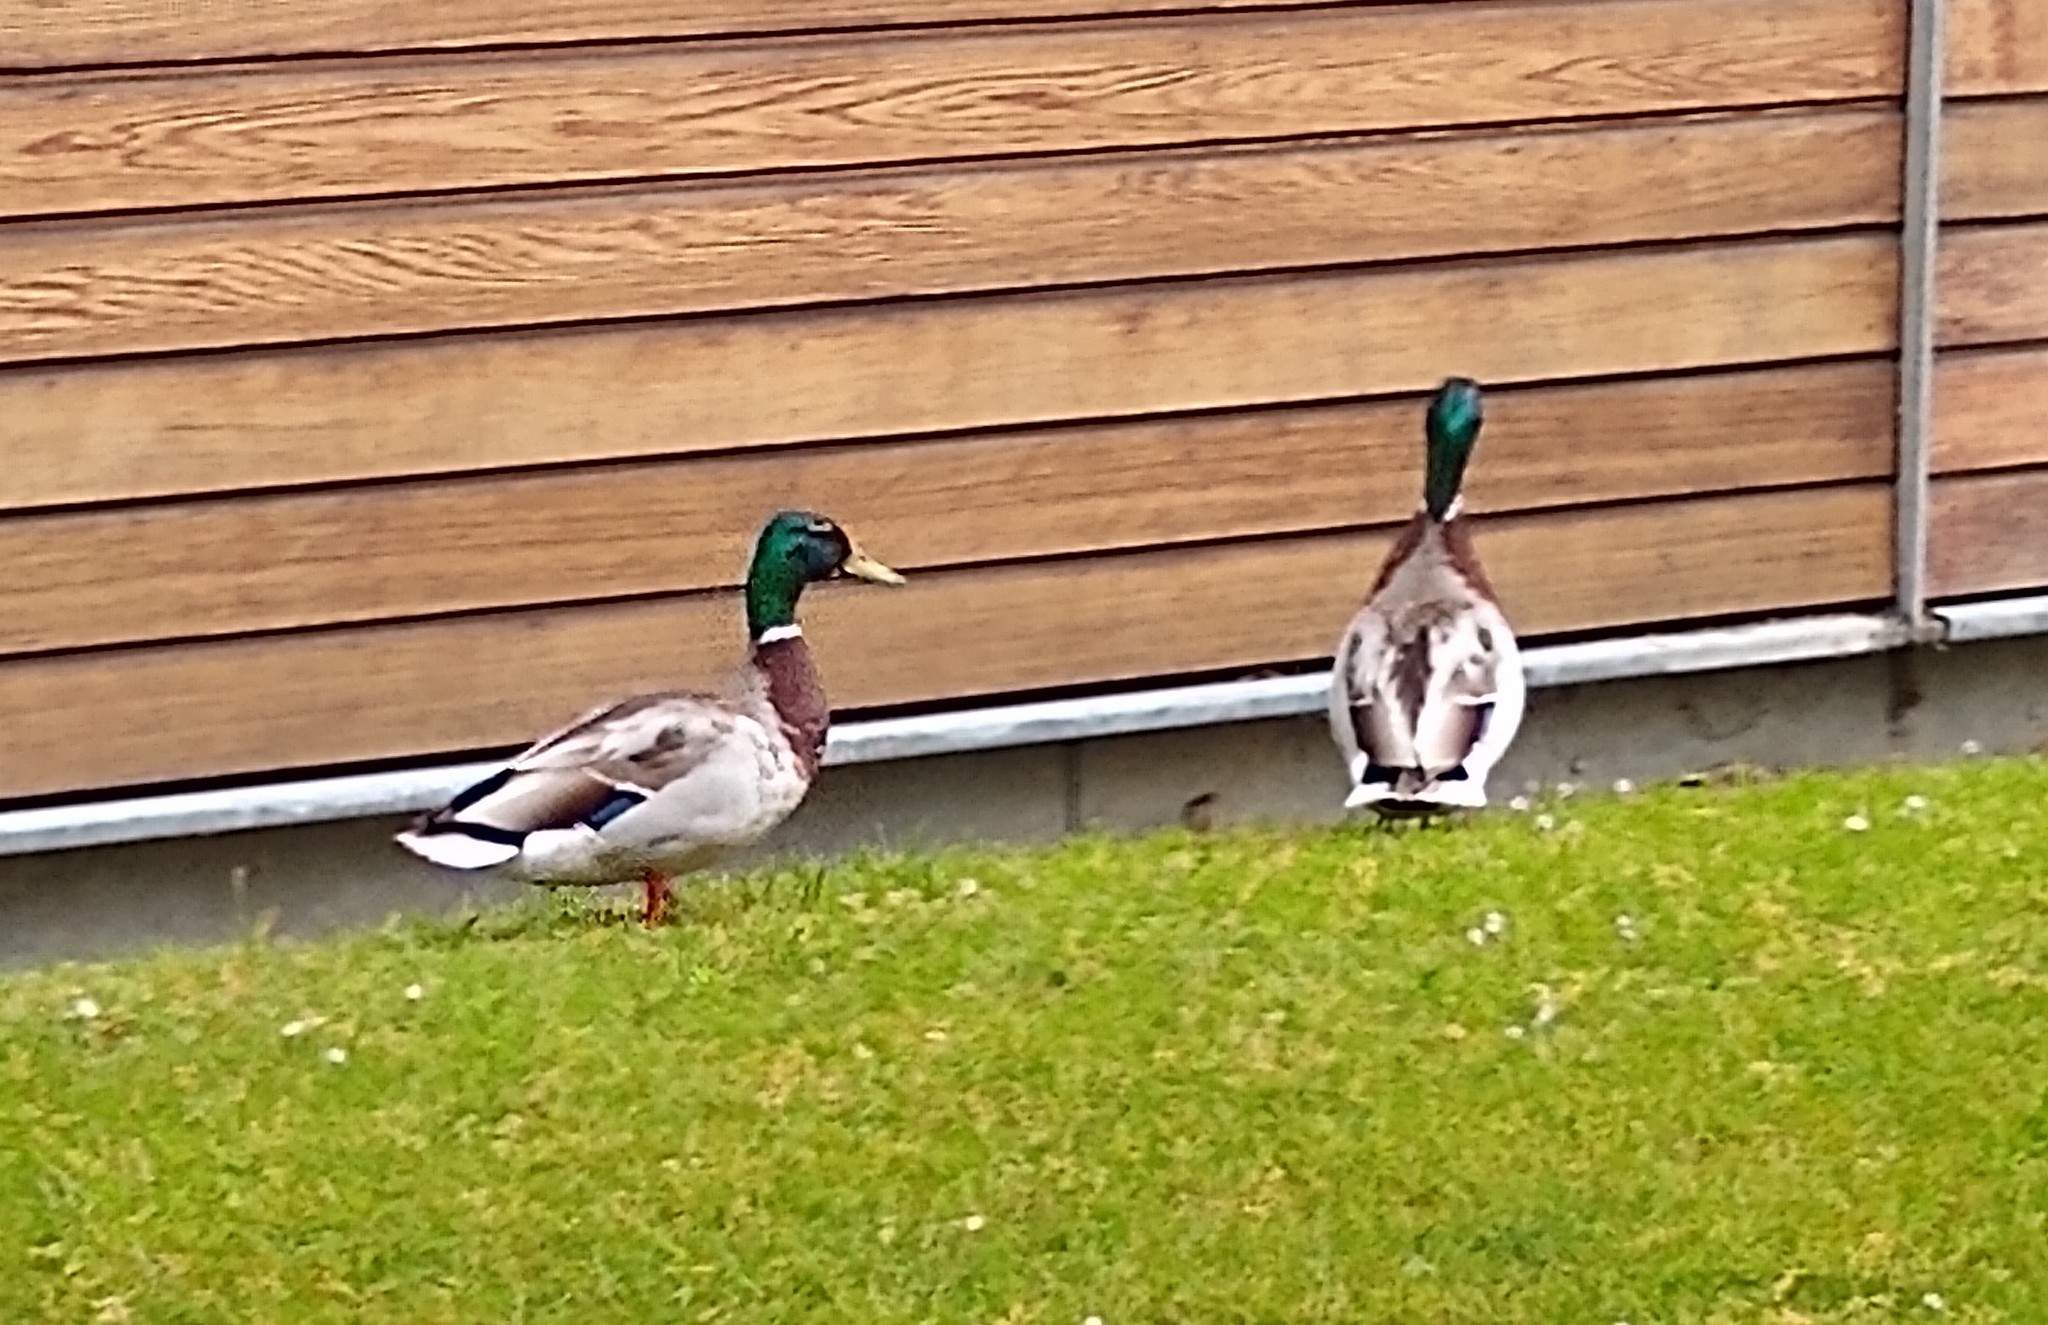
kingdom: Animalia
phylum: Chordata
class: Aves
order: Anseriformes
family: Anatidae
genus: Anas
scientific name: Anas platyrhynchos
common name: Mallard
